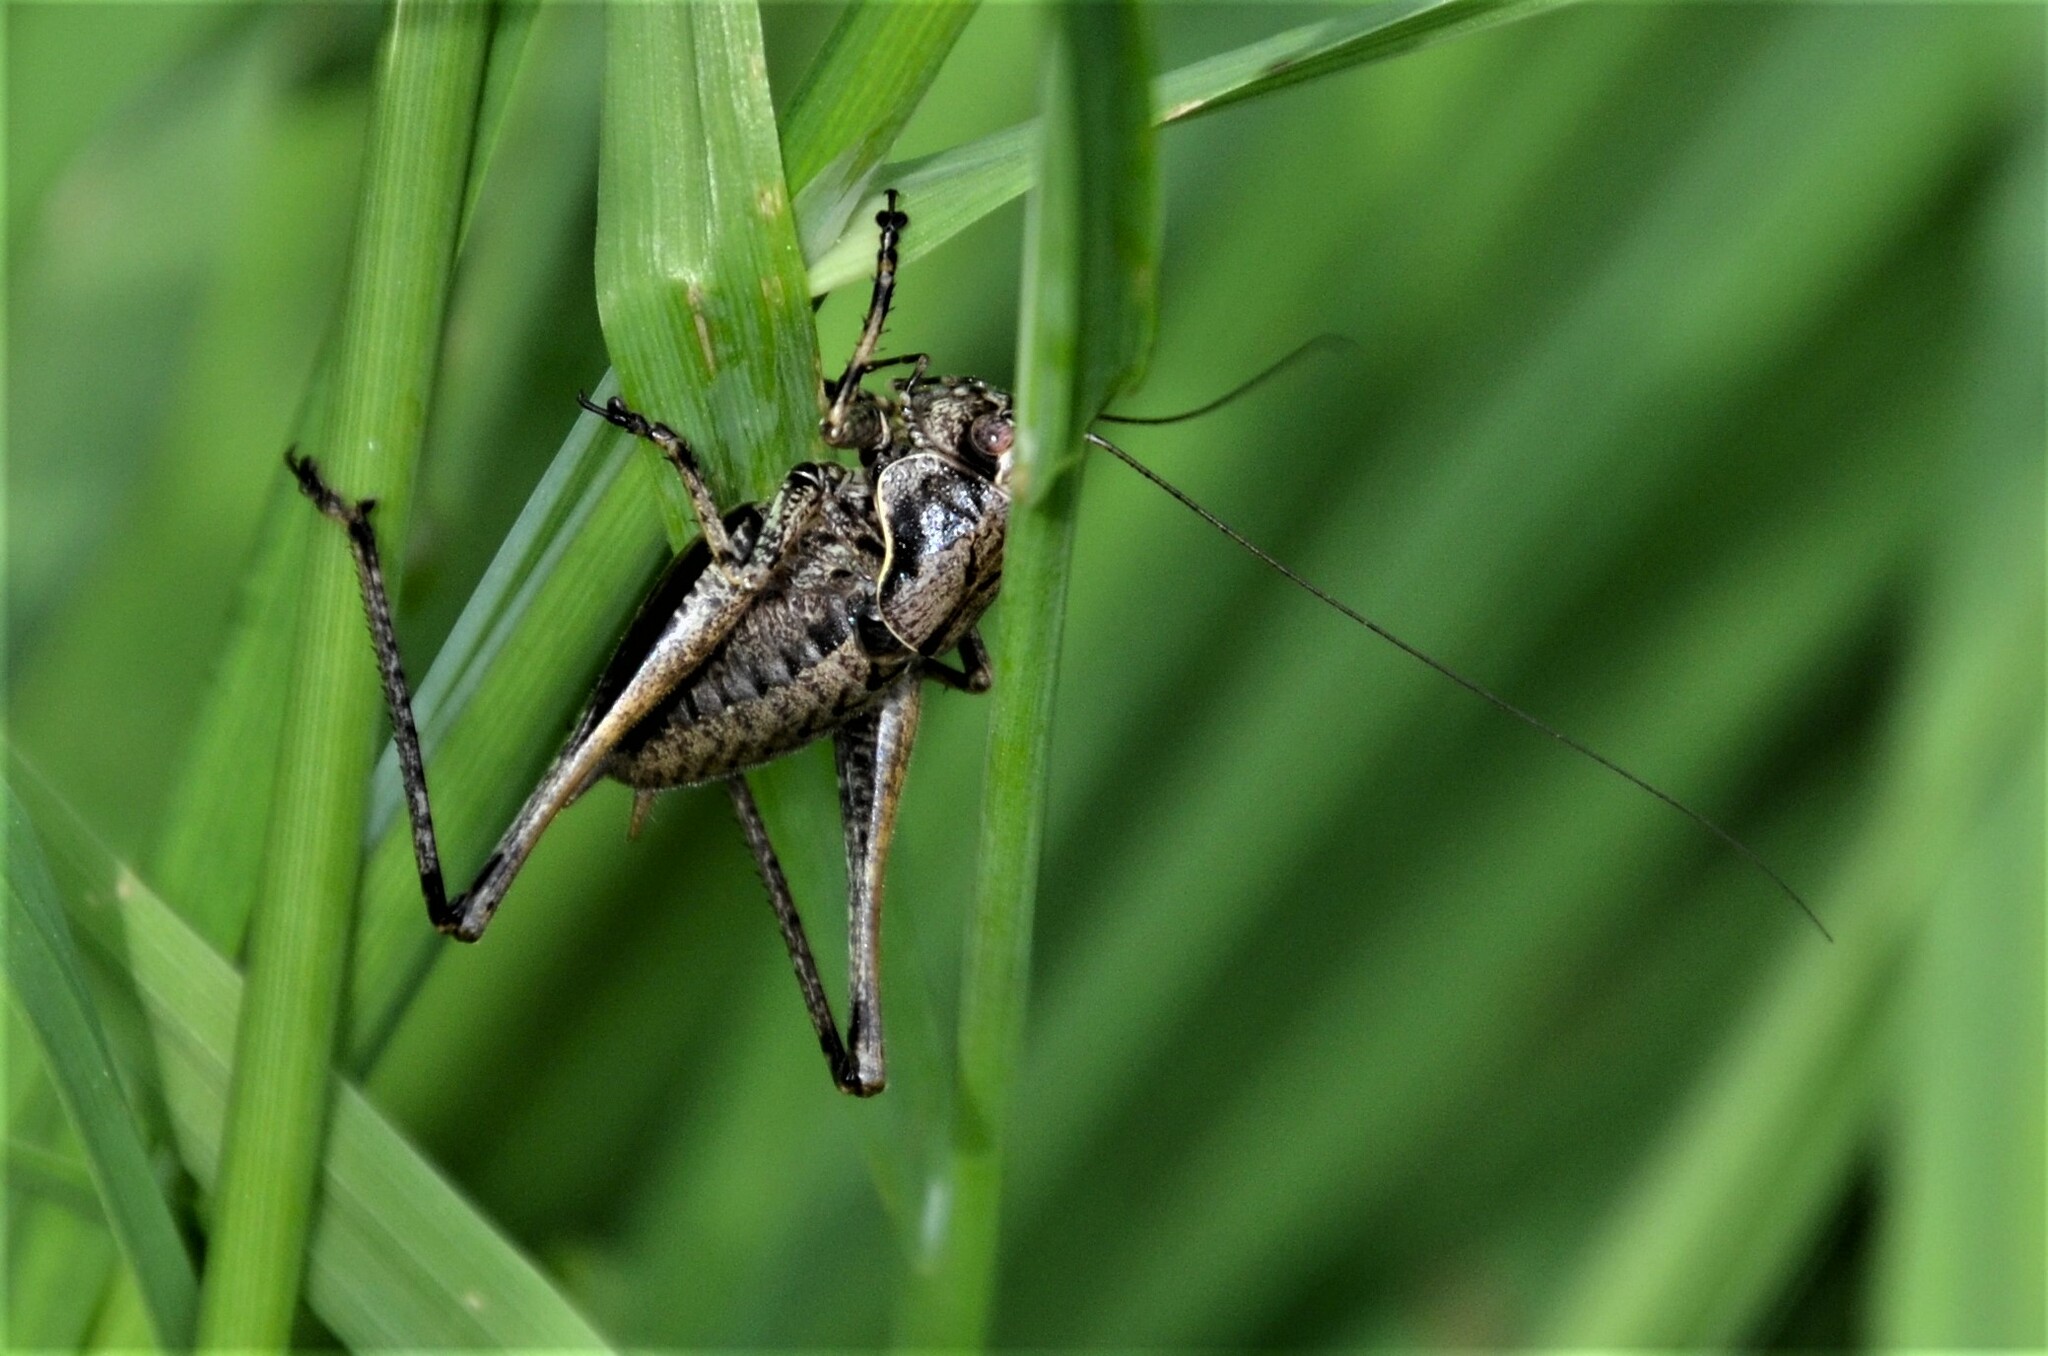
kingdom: Animalia
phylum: Arthropoda
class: Insecta
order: Orthoptera
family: Tettigoniidae
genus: Pholidoptera
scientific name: Pholidoptera griseoaptera
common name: Dark bush-cricket
